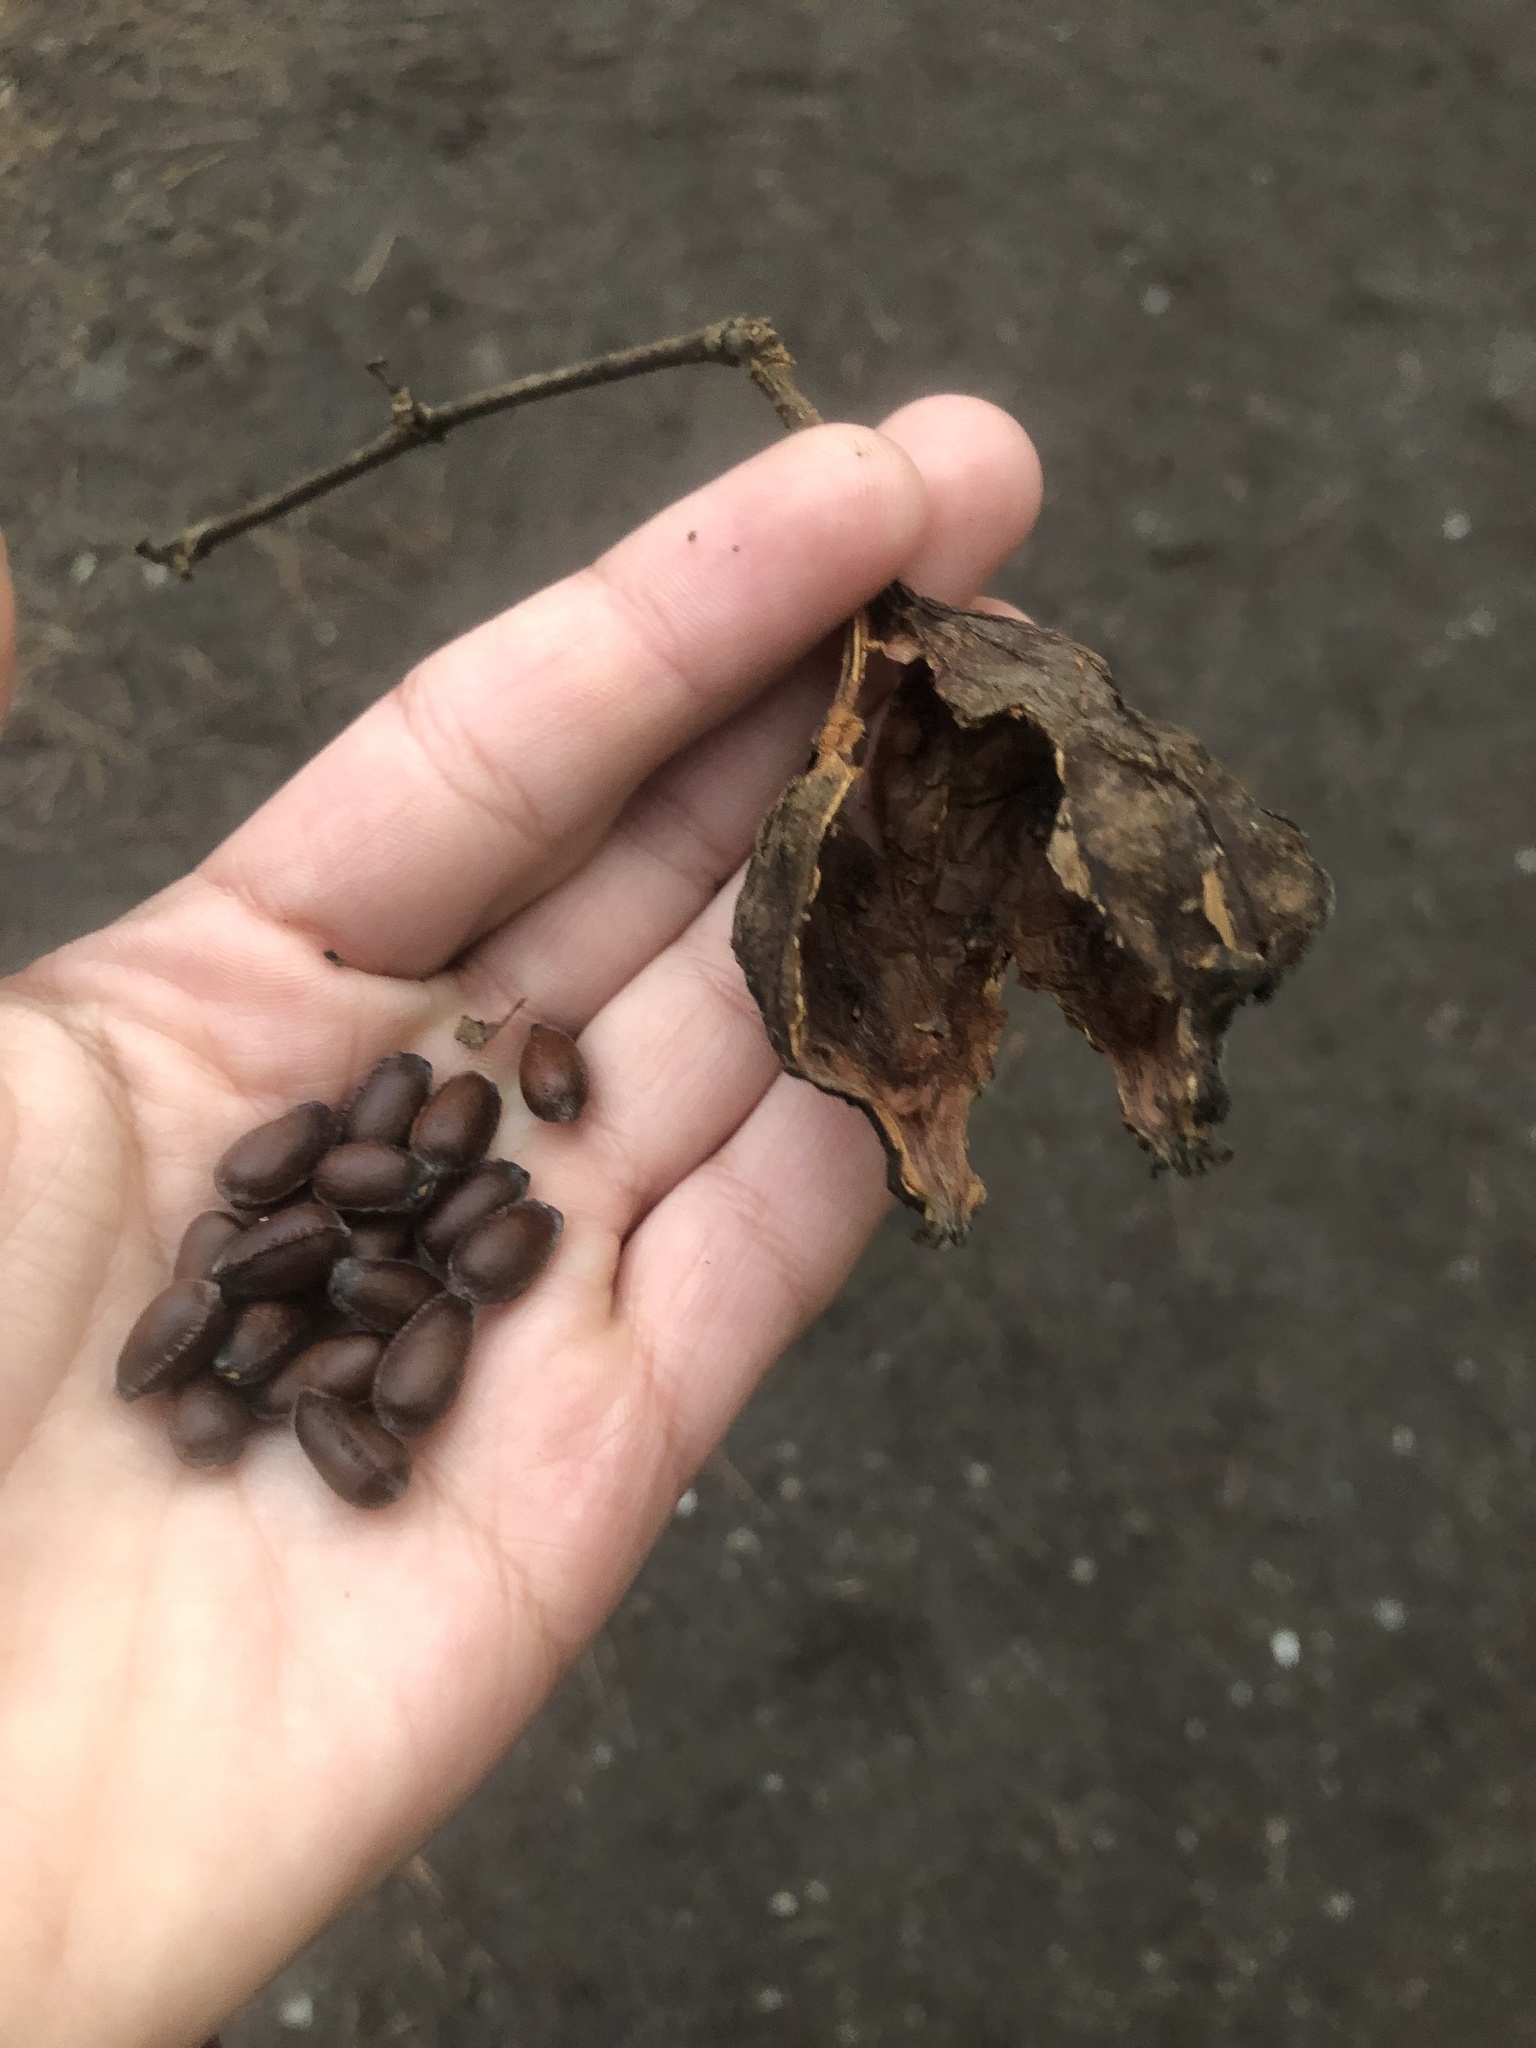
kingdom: Plantae
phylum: Tracheophyta
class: Magnoliopsida
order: Laurales
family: Calycanthaceae
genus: Calycanthus
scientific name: Calycanthus floridus
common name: Carolina-allspice
